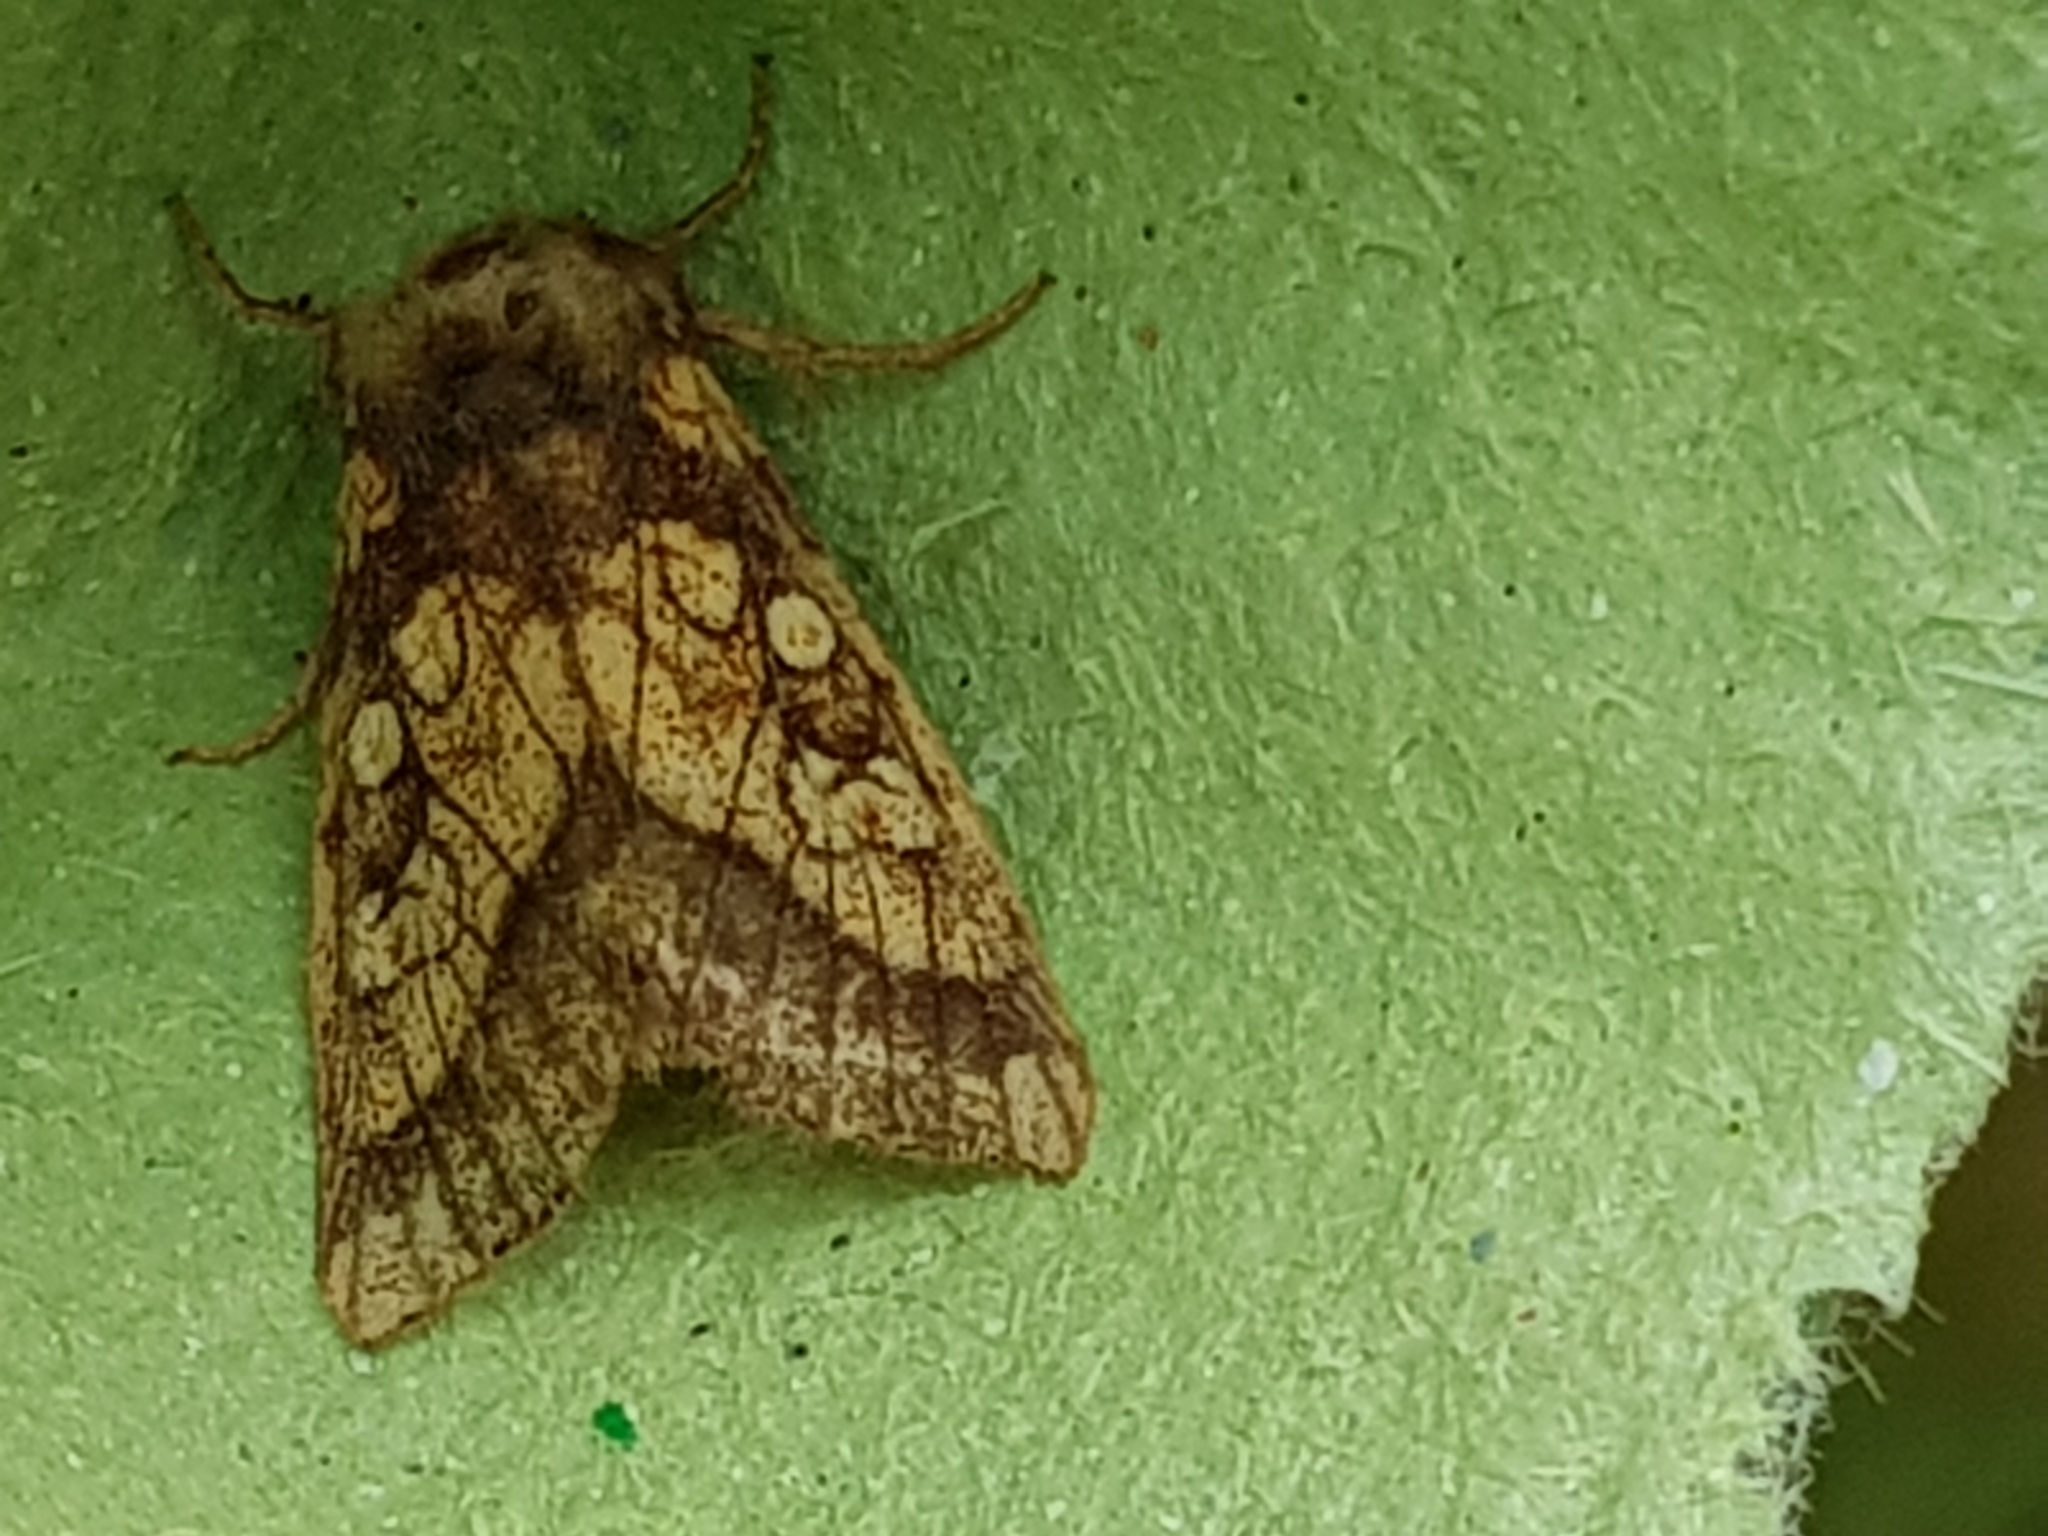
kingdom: Animalia
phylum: Arthropoda
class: Insecta
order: Lepidoptera
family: Noctuidae
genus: Gortyna
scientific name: Gortyna flavago
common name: Frosted orange
